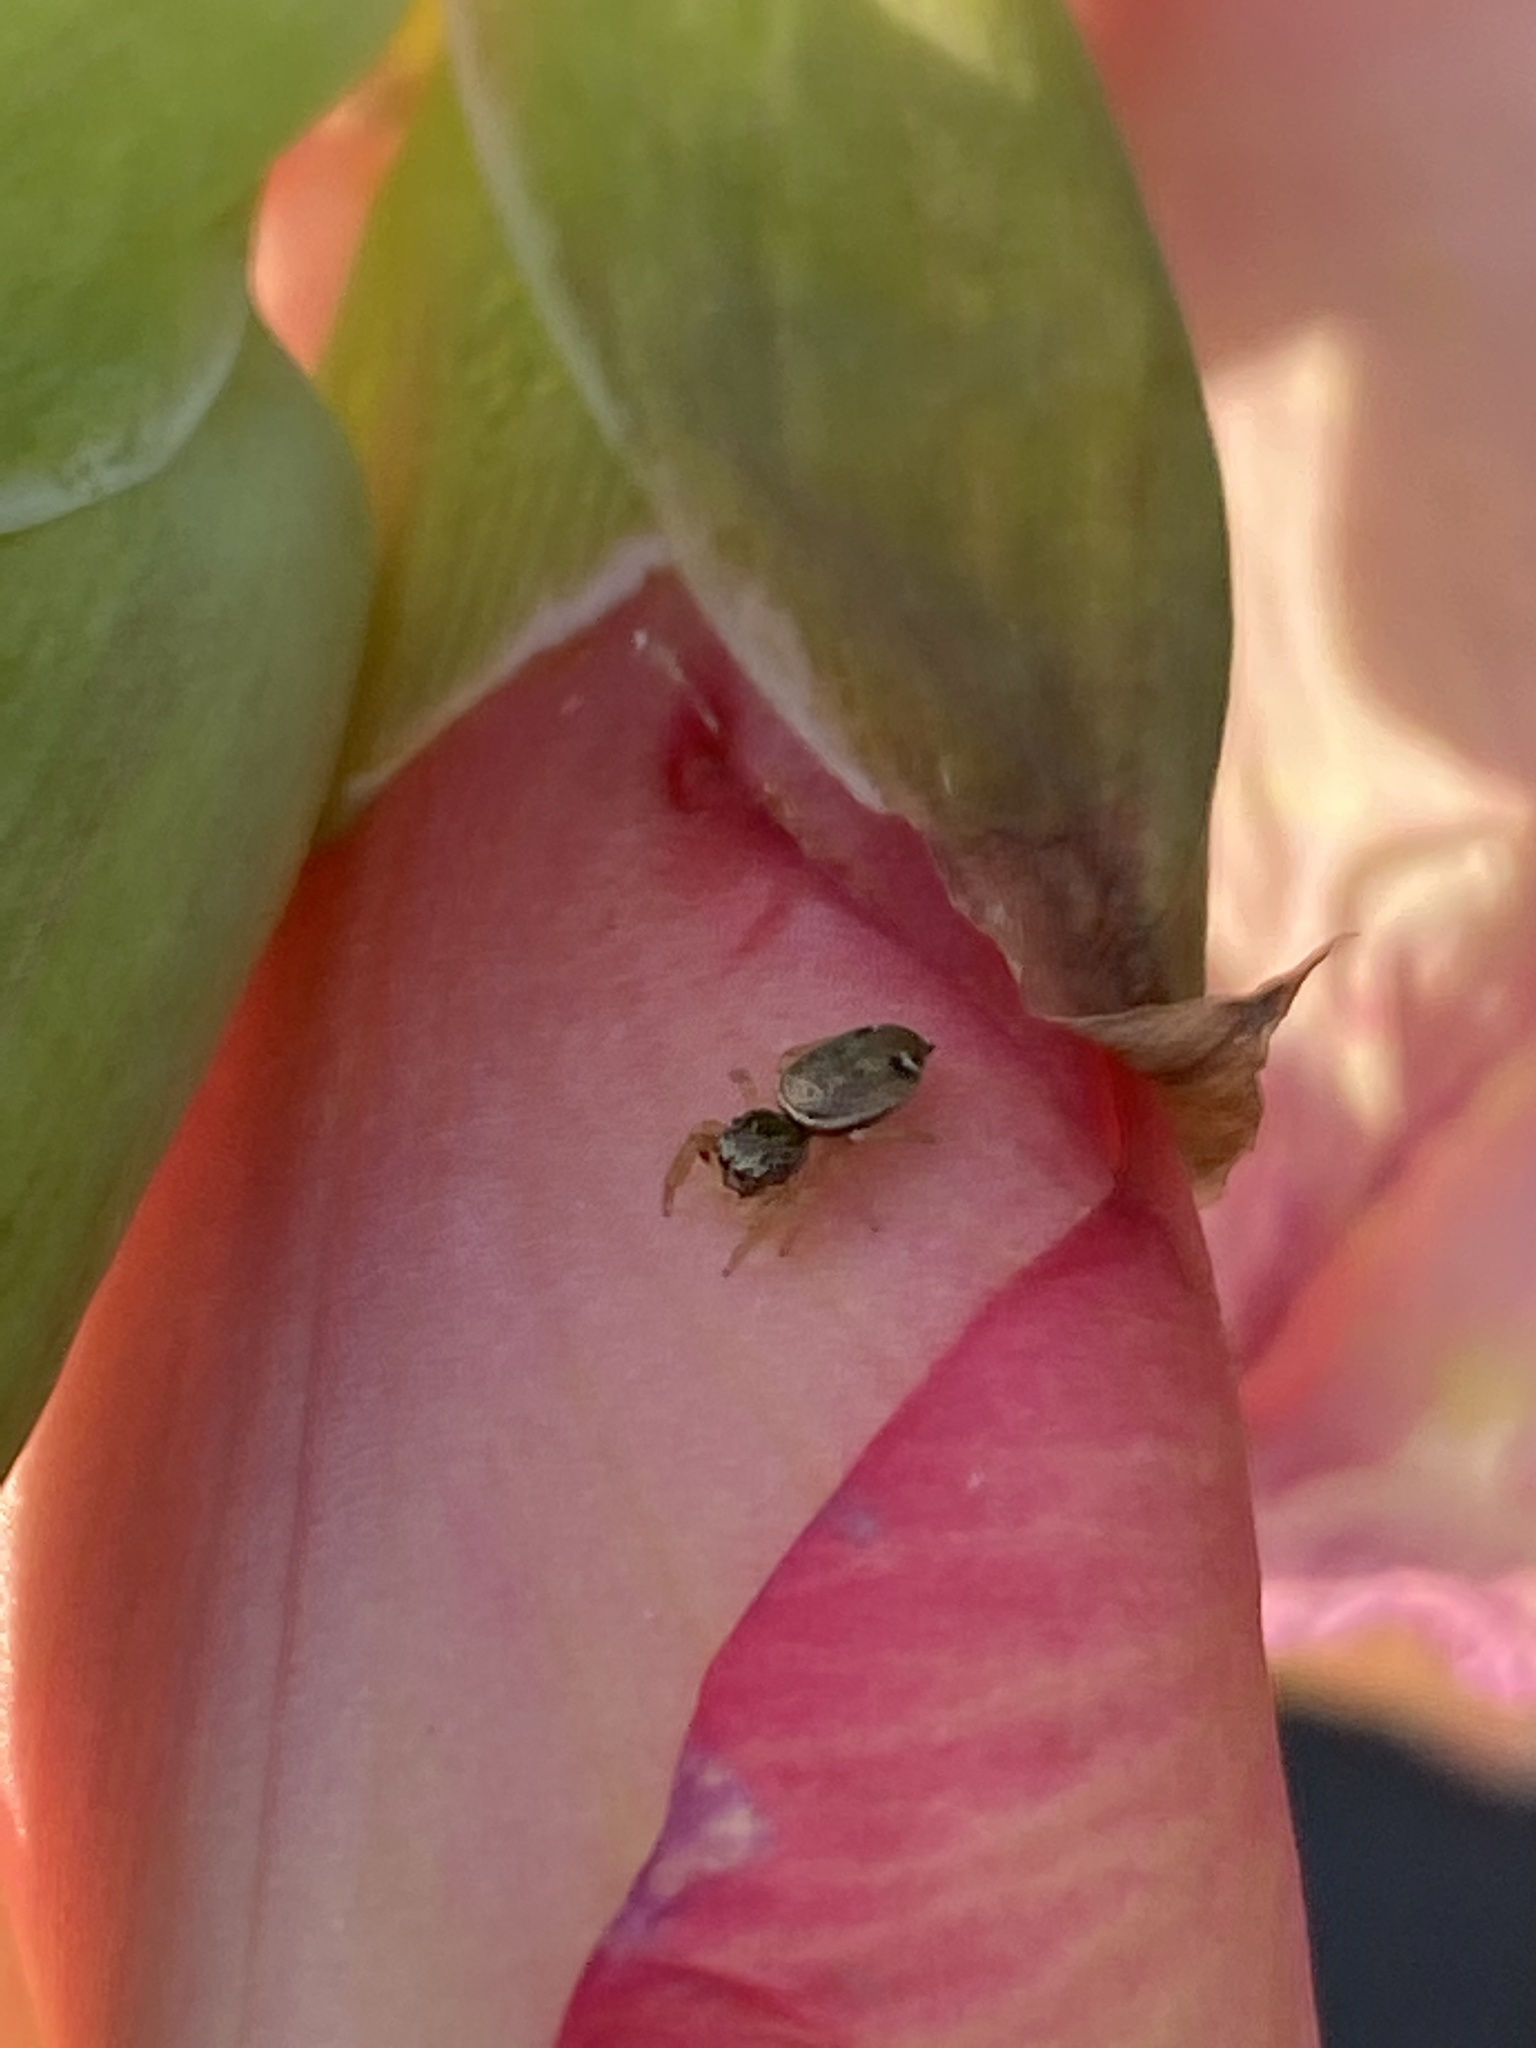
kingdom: Animalia
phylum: Arthropoda
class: Arachnida
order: Araneae
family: Salticidae
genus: Sassacus
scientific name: Sassacus vitis
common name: Jumping spiders
